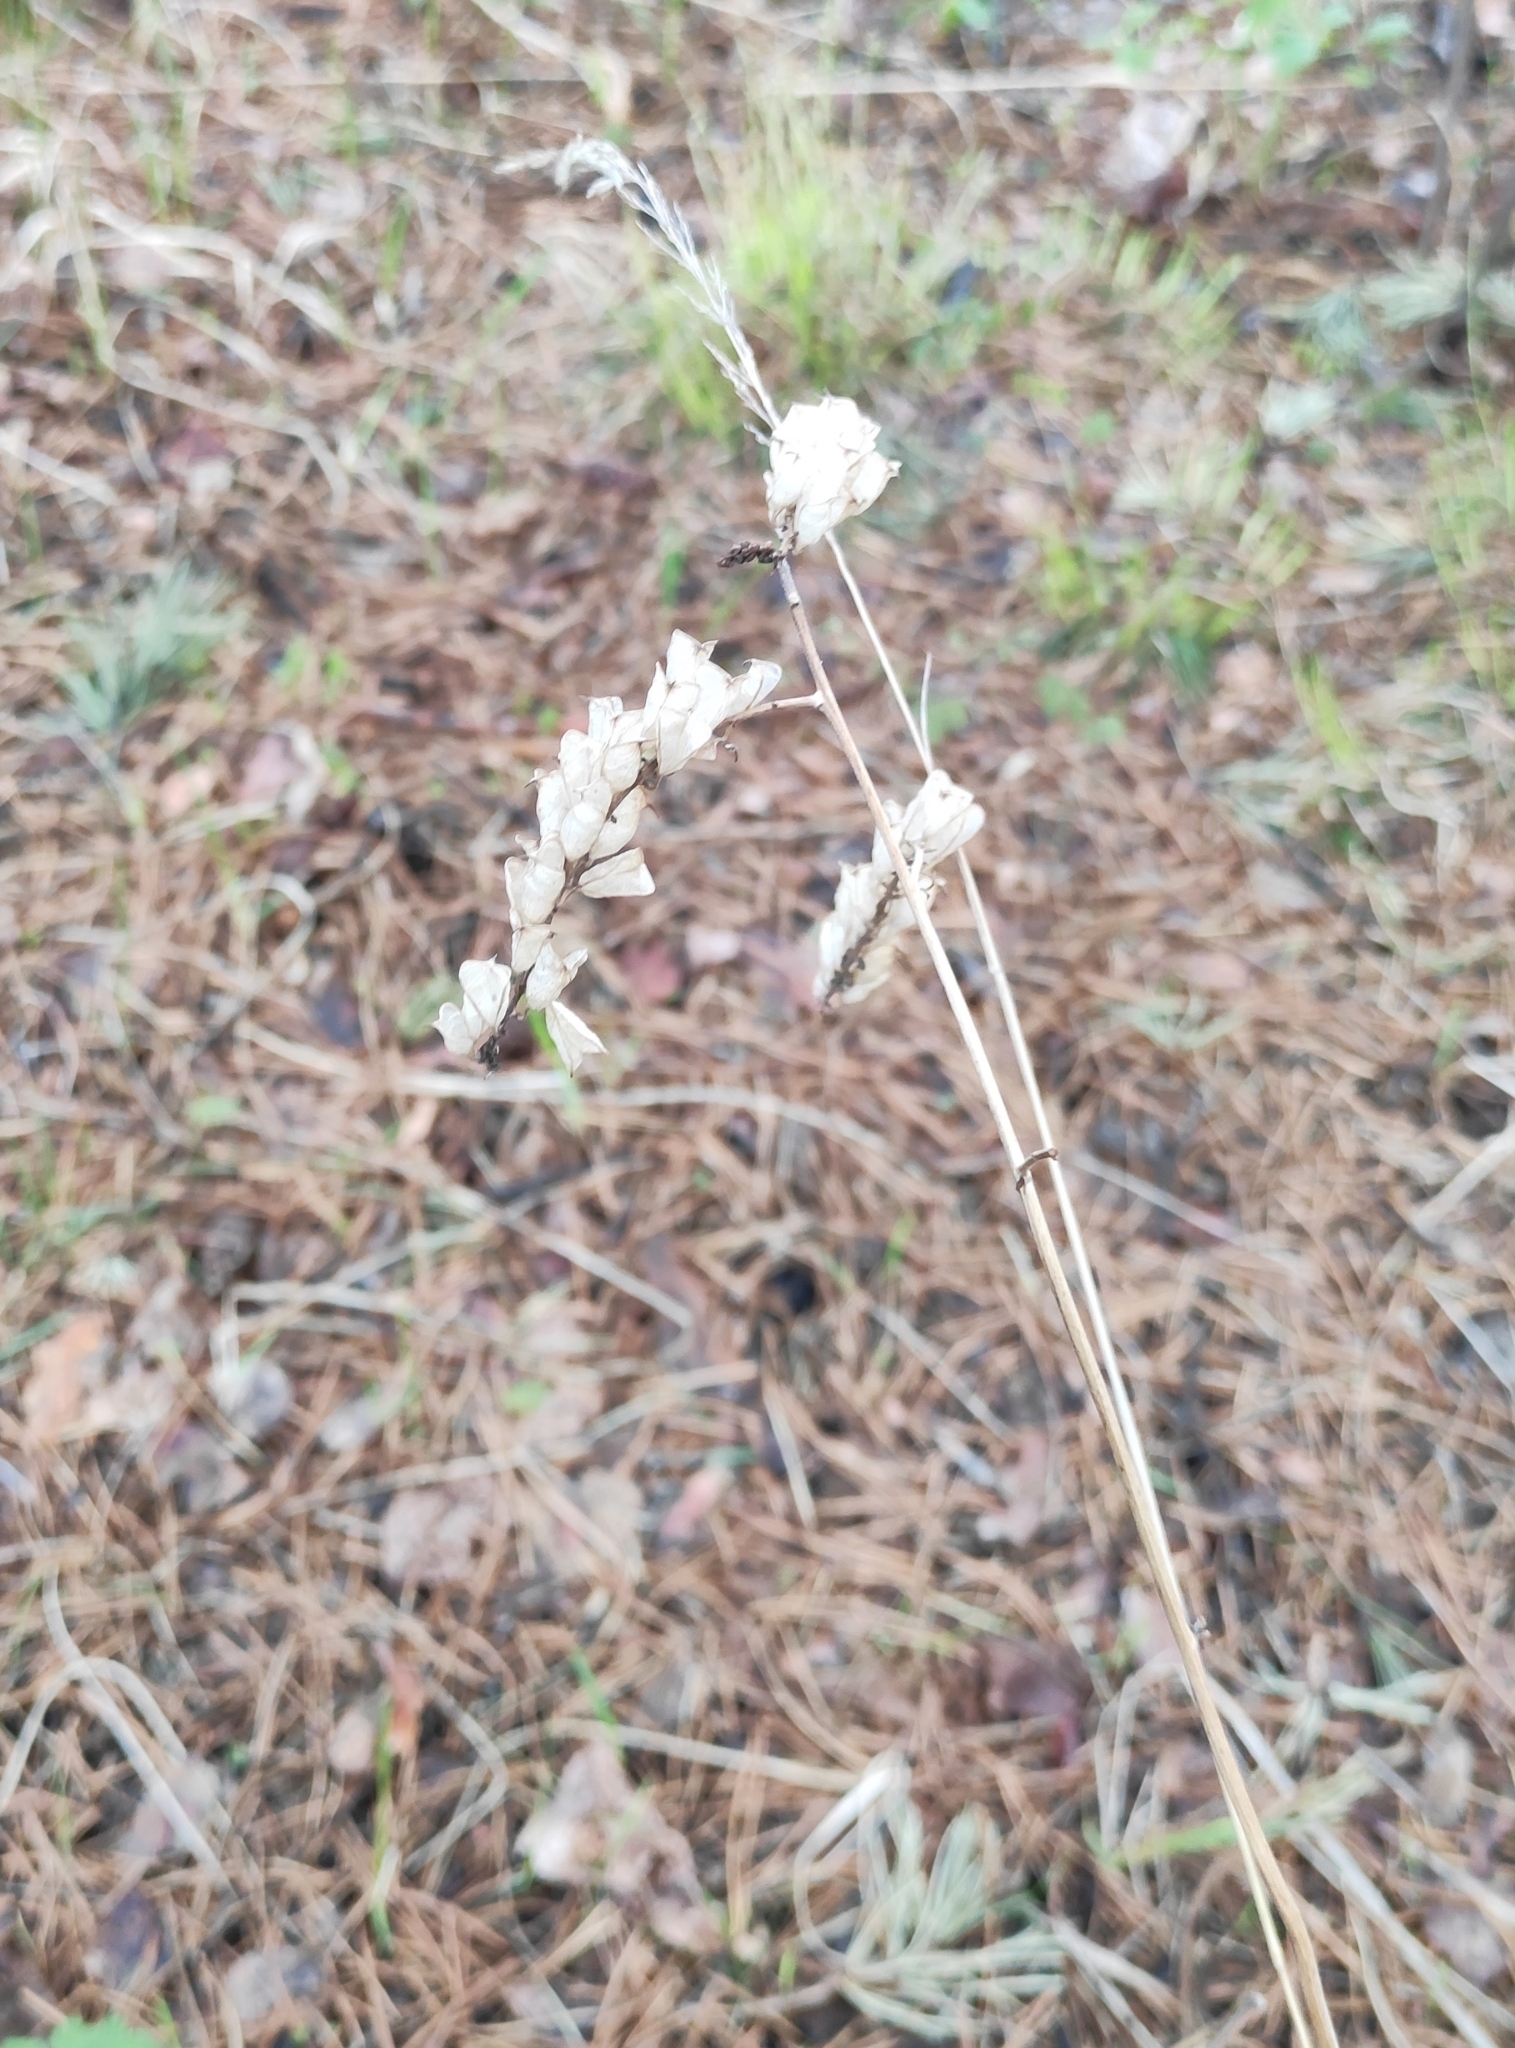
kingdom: Plantae
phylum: Tracheophyta
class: Magnoliopsida
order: Ranunculales
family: Ranunculaceae
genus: Actaea
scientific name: Actaea cimicifuga
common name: Chinese cimicifuga
